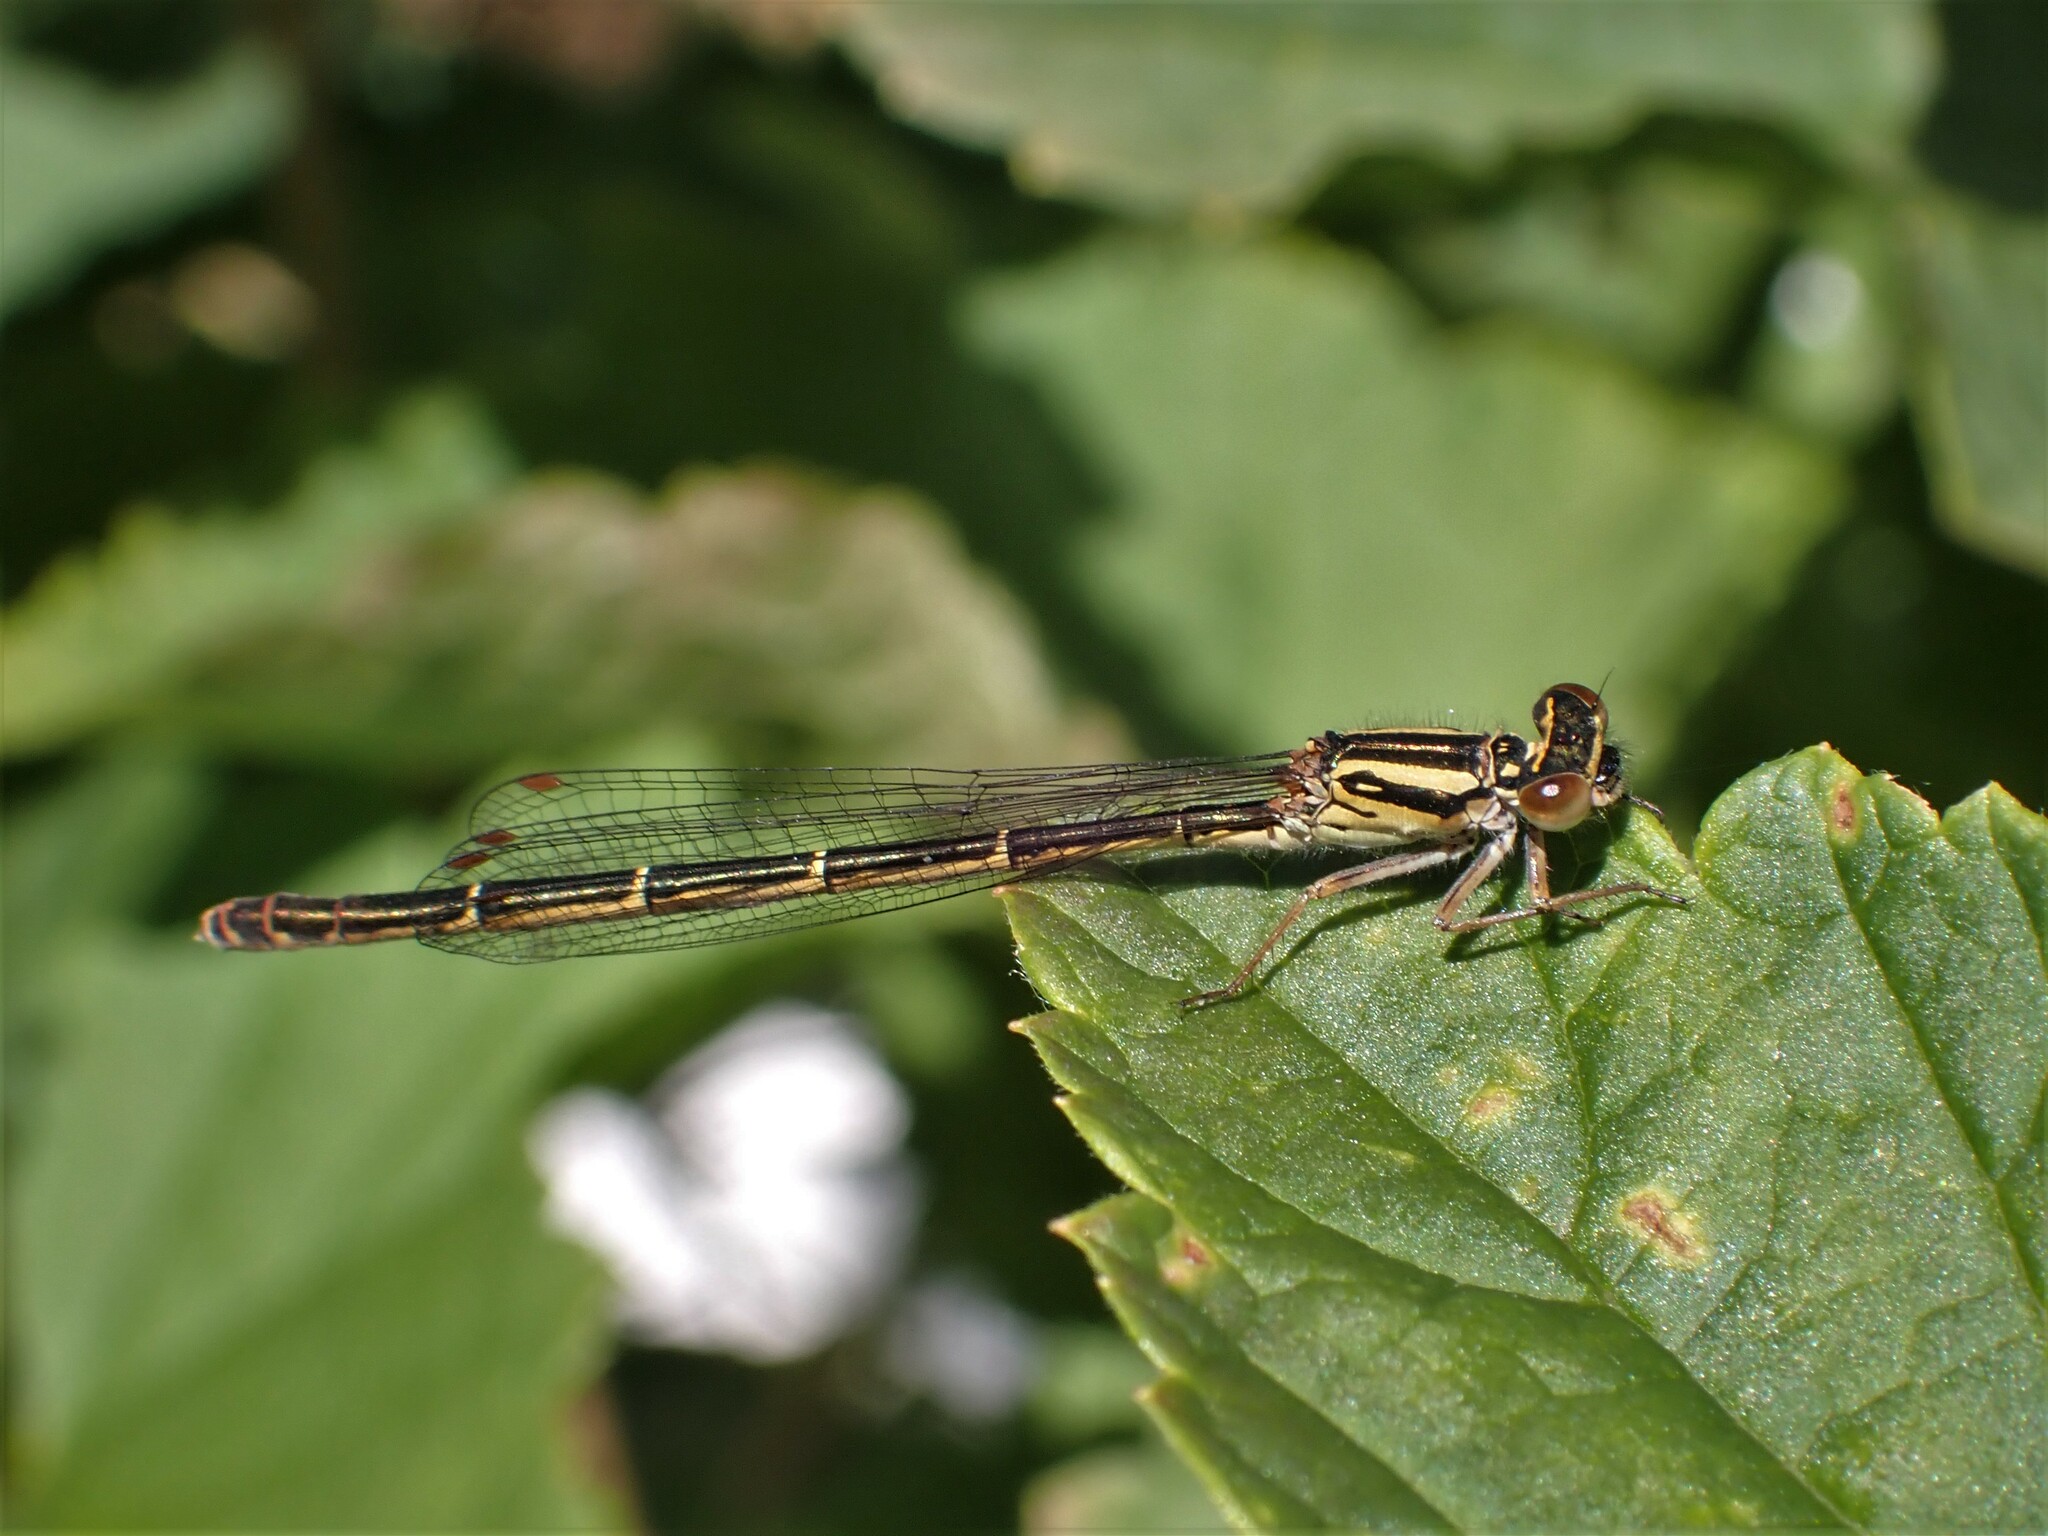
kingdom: Animalia
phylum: Arthropoda
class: Insecta
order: Odonata
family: Coenagrionidae
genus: Xanthocnemis
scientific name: Xanthocnemis zealandica
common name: Common redcoat damselfly
